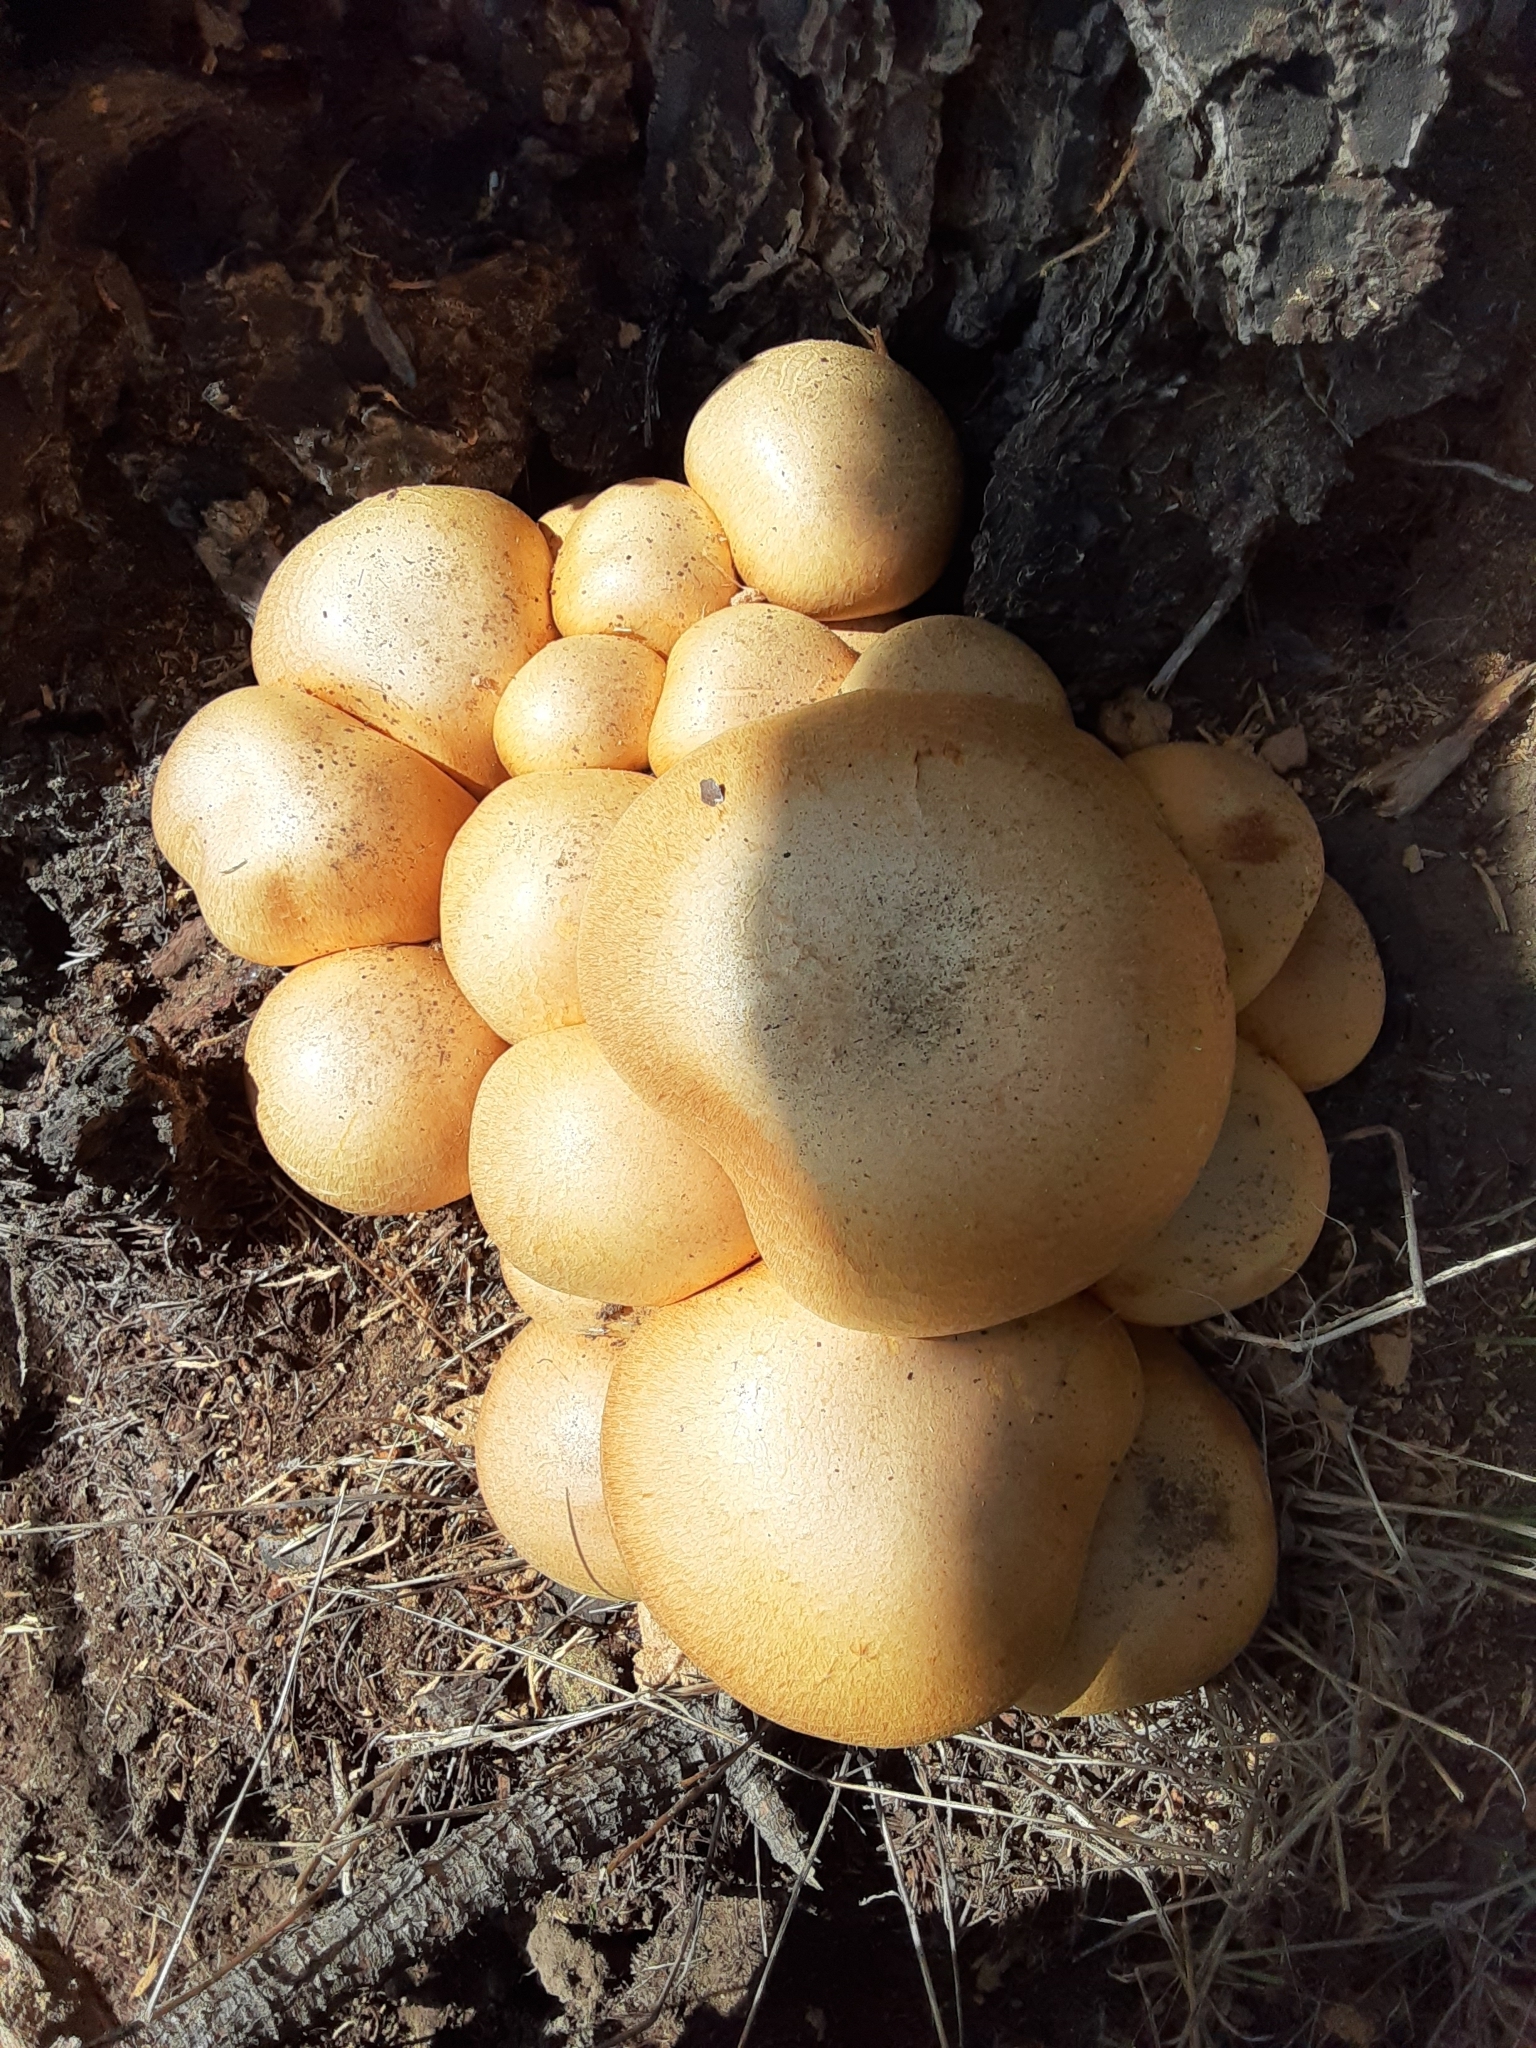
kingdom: Fungi
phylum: Basidiomycota
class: Agaricomycetes
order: Agaricales
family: Hymenogastraceae
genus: Gymnopilus
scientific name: Gymnopilus ventricosus
